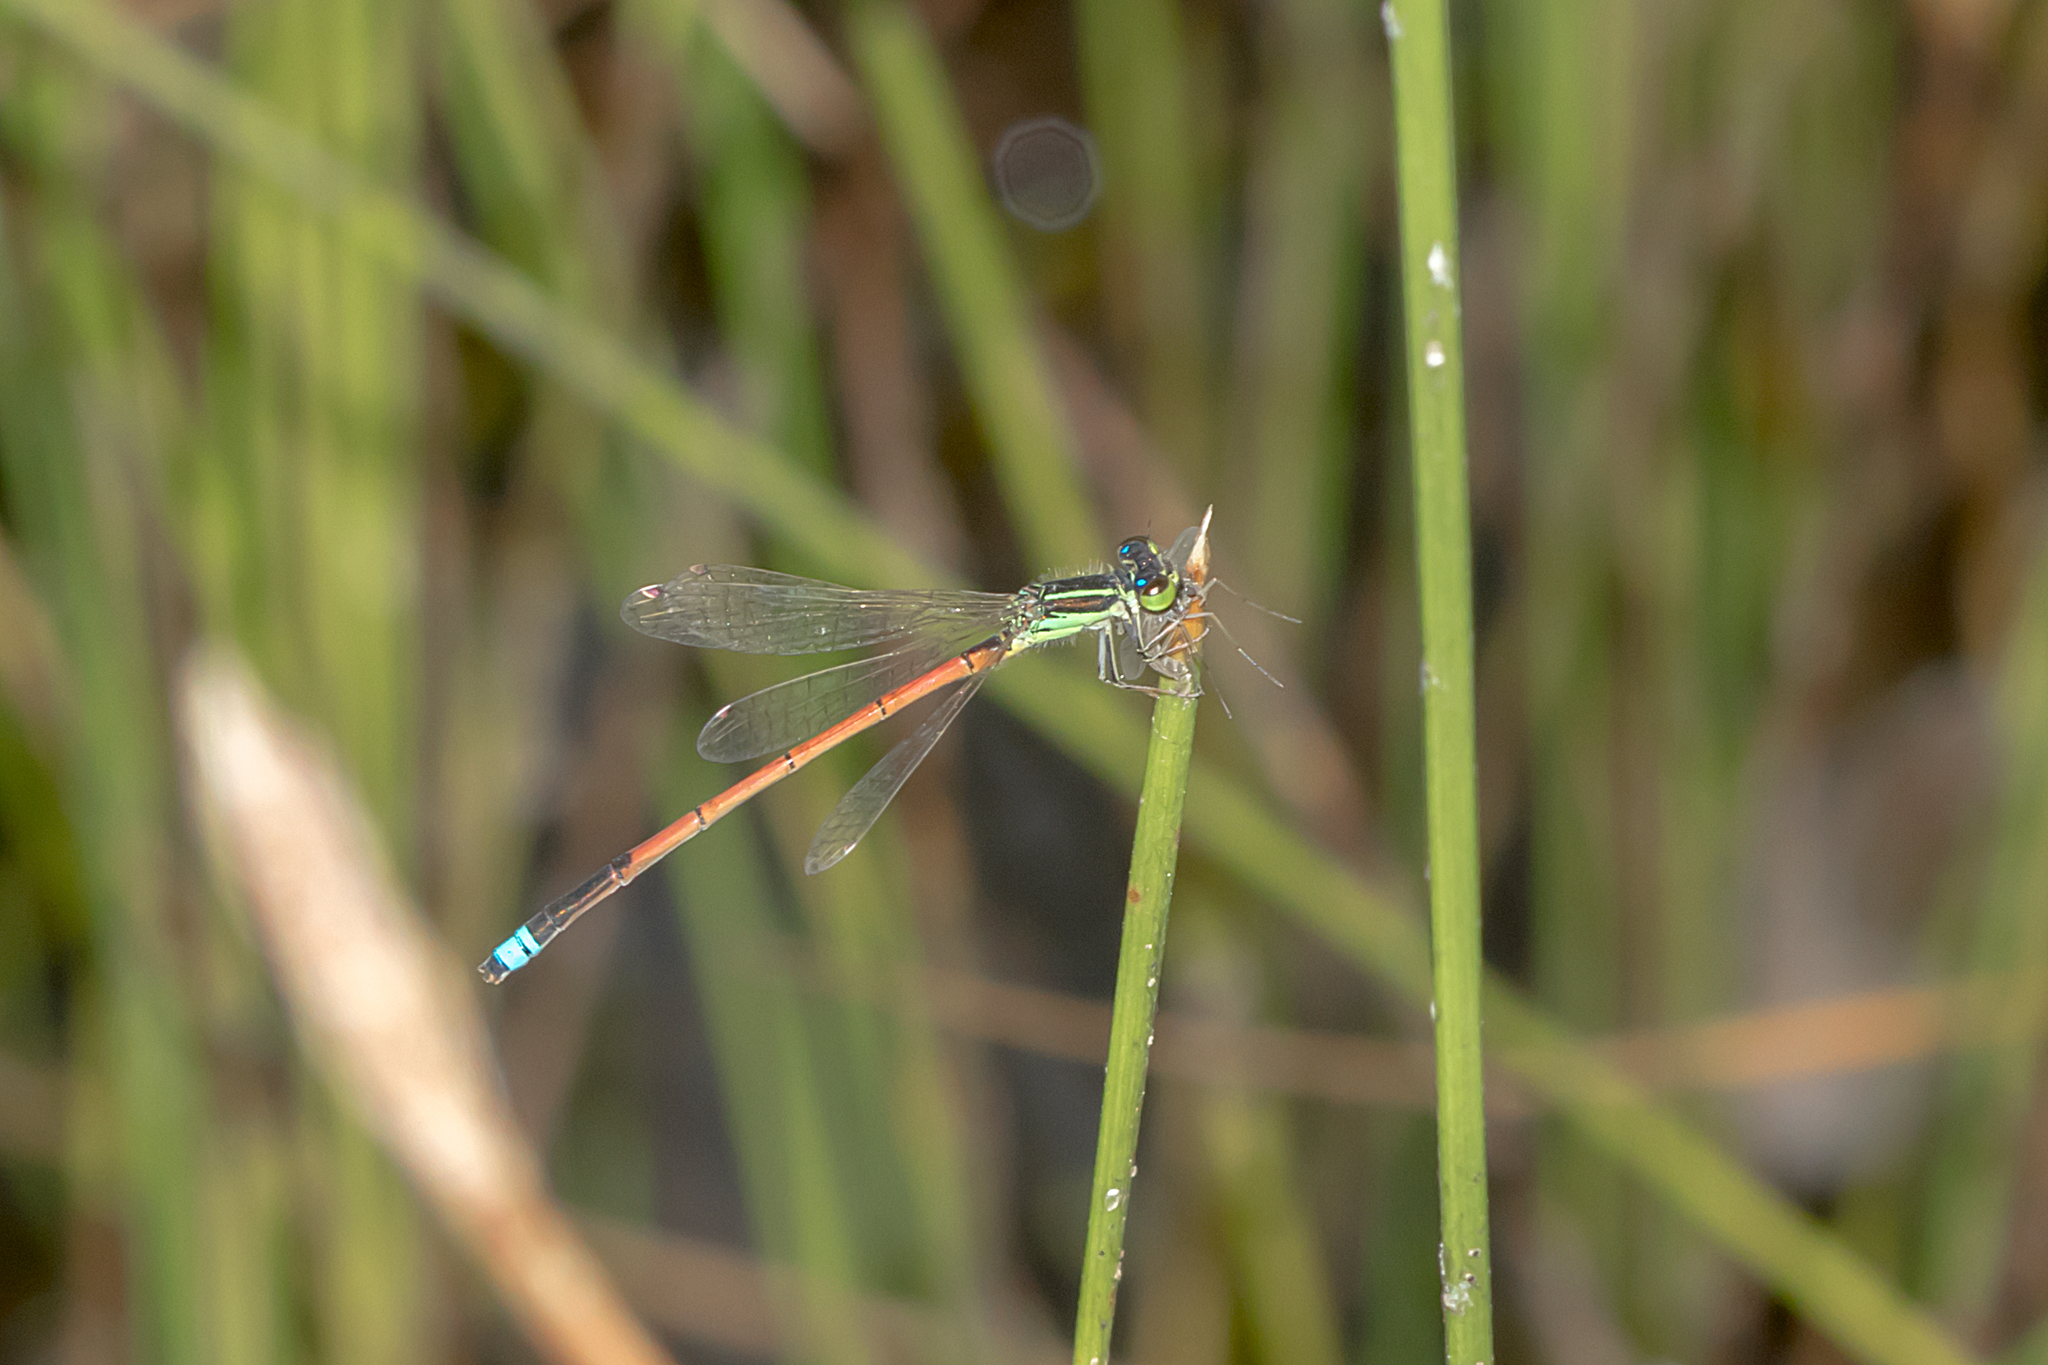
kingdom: Animalia
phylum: Arthropoda
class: Insecta
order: Odonata
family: Coenagrionidae
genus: Ischnura
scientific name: Ischnura aurora
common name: Gossamer damselfly
